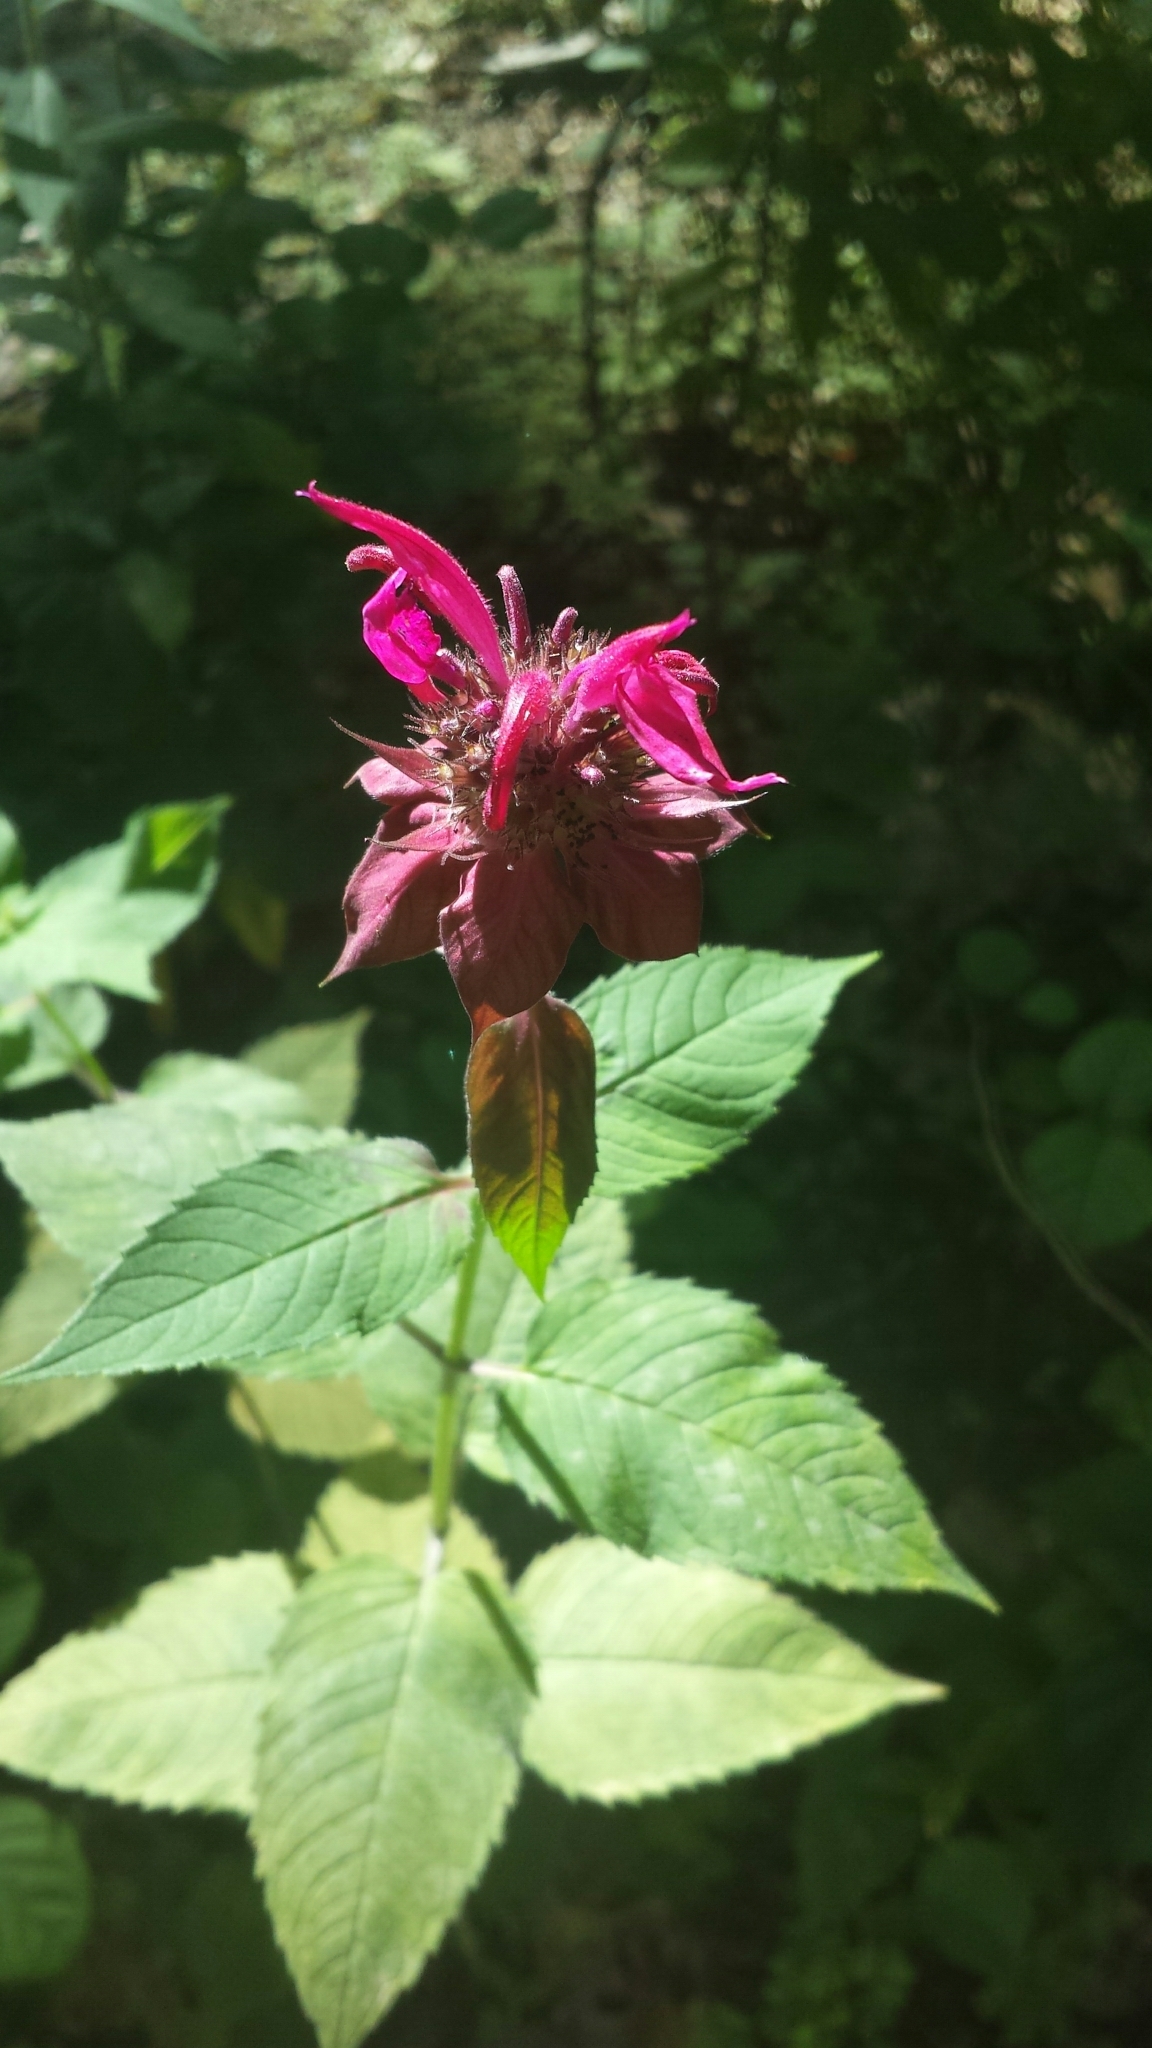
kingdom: Plantae
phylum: Tracheophyta
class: Magnoliopsida
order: Lamiales
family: Lamiaceae
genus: Monarda
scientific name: Monarda didyma
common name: Beebalm
